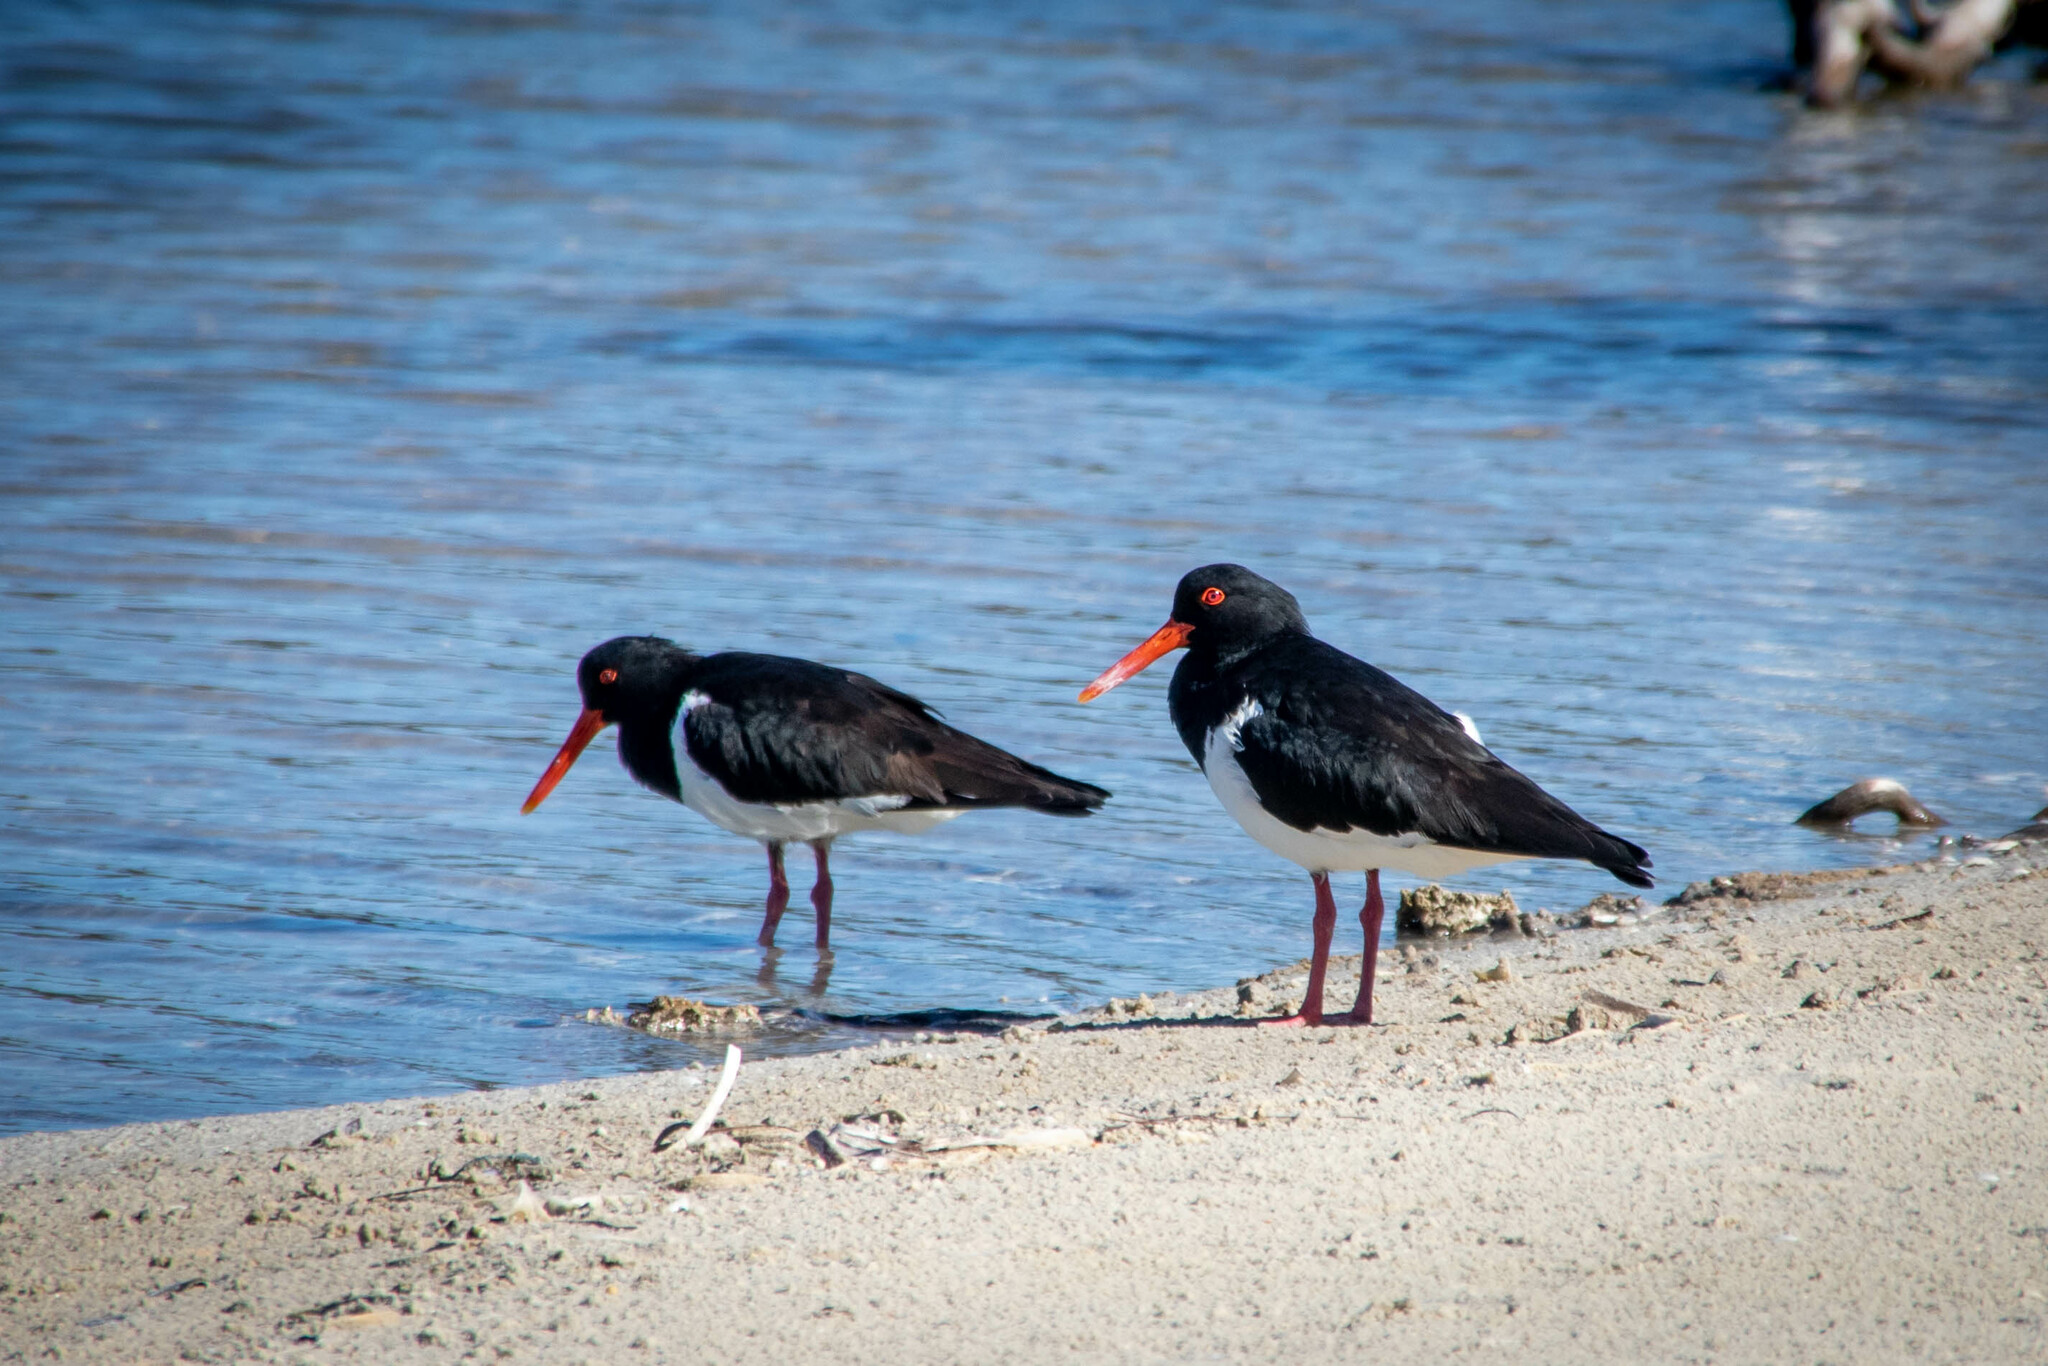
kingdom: Animalia
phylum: Chordata
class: Aves
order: Charadriiformes
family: Haematopodidae
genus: Haematopus
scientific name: Haematopus longirostris
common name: Pied oystercatcher
